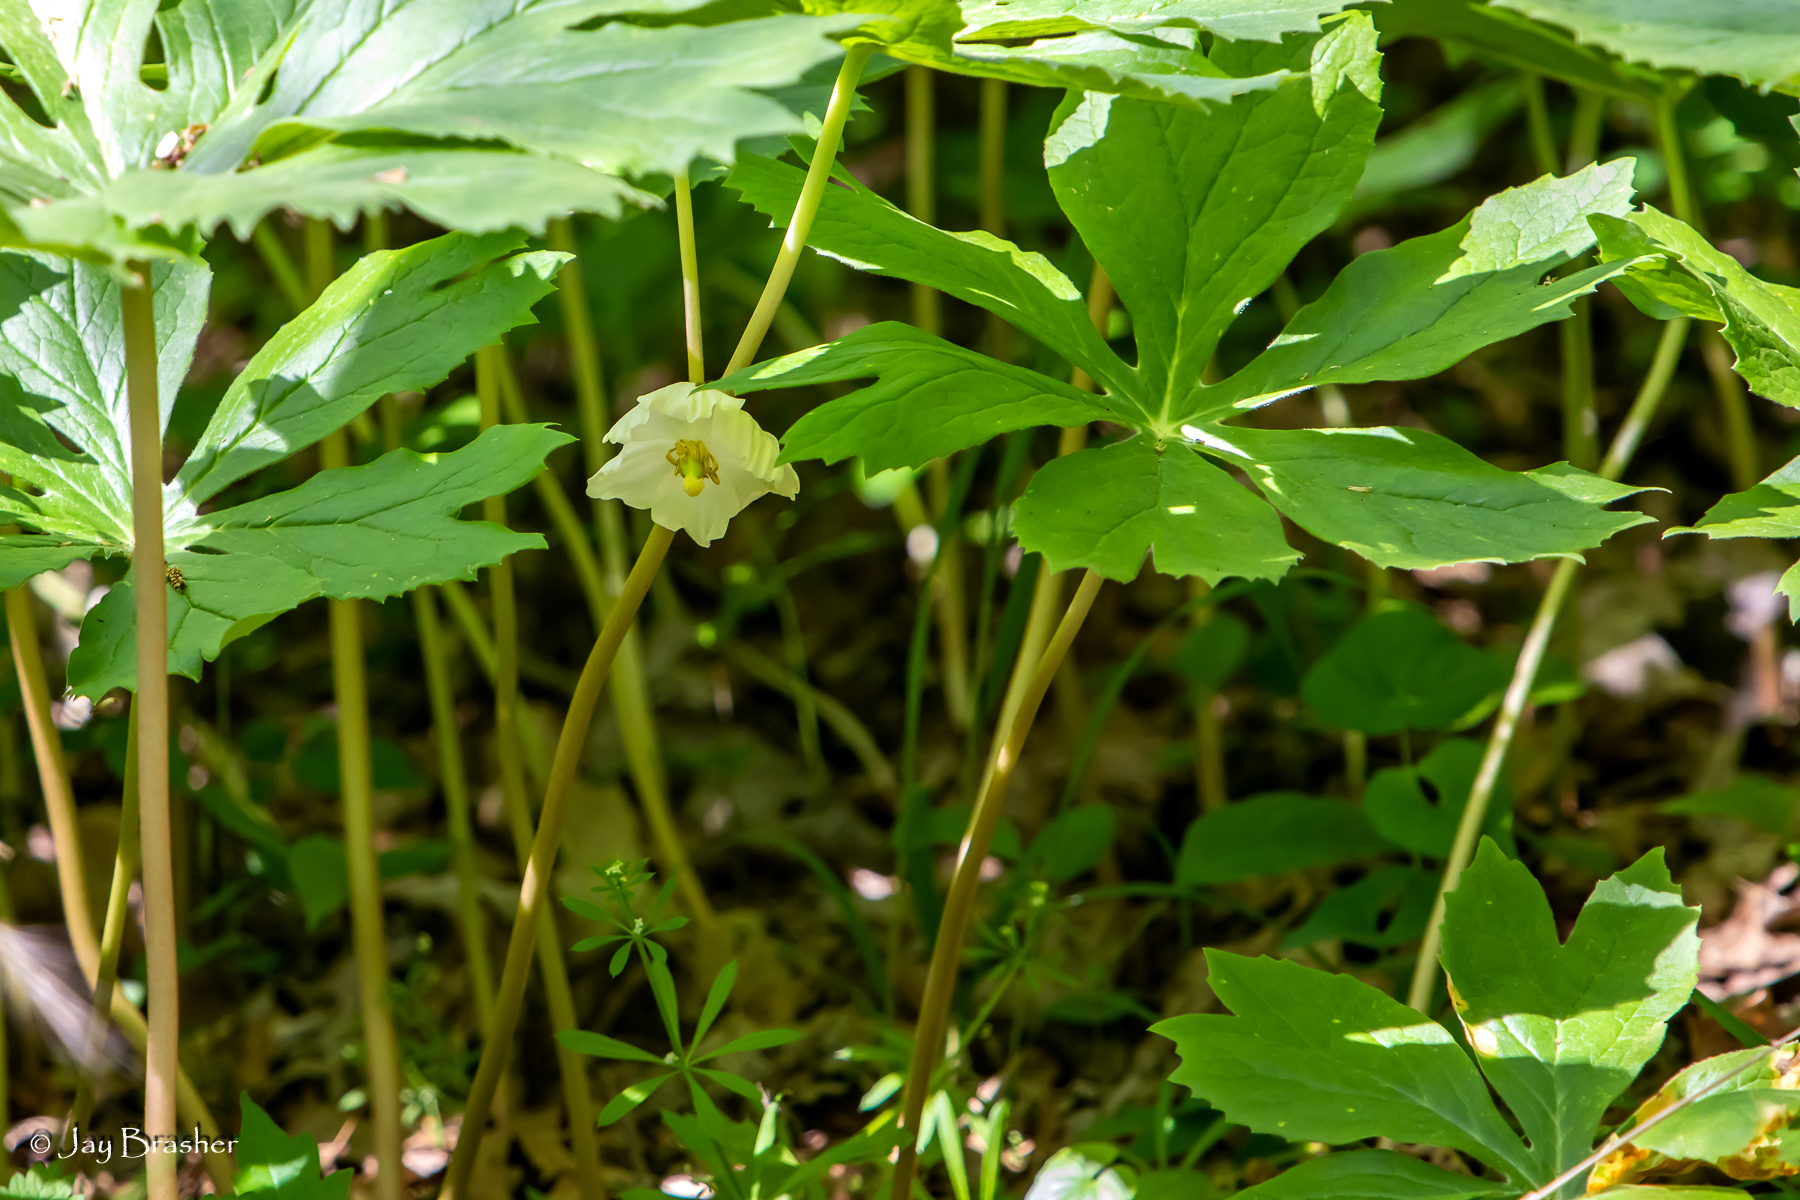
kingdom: Plantae
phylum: Tracheophyta
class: Magnoliopsida
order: Ranunculales
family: Berberidaceae
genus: Podophyllum
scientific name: Podophyllum peltatum
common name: Wild mandrake
